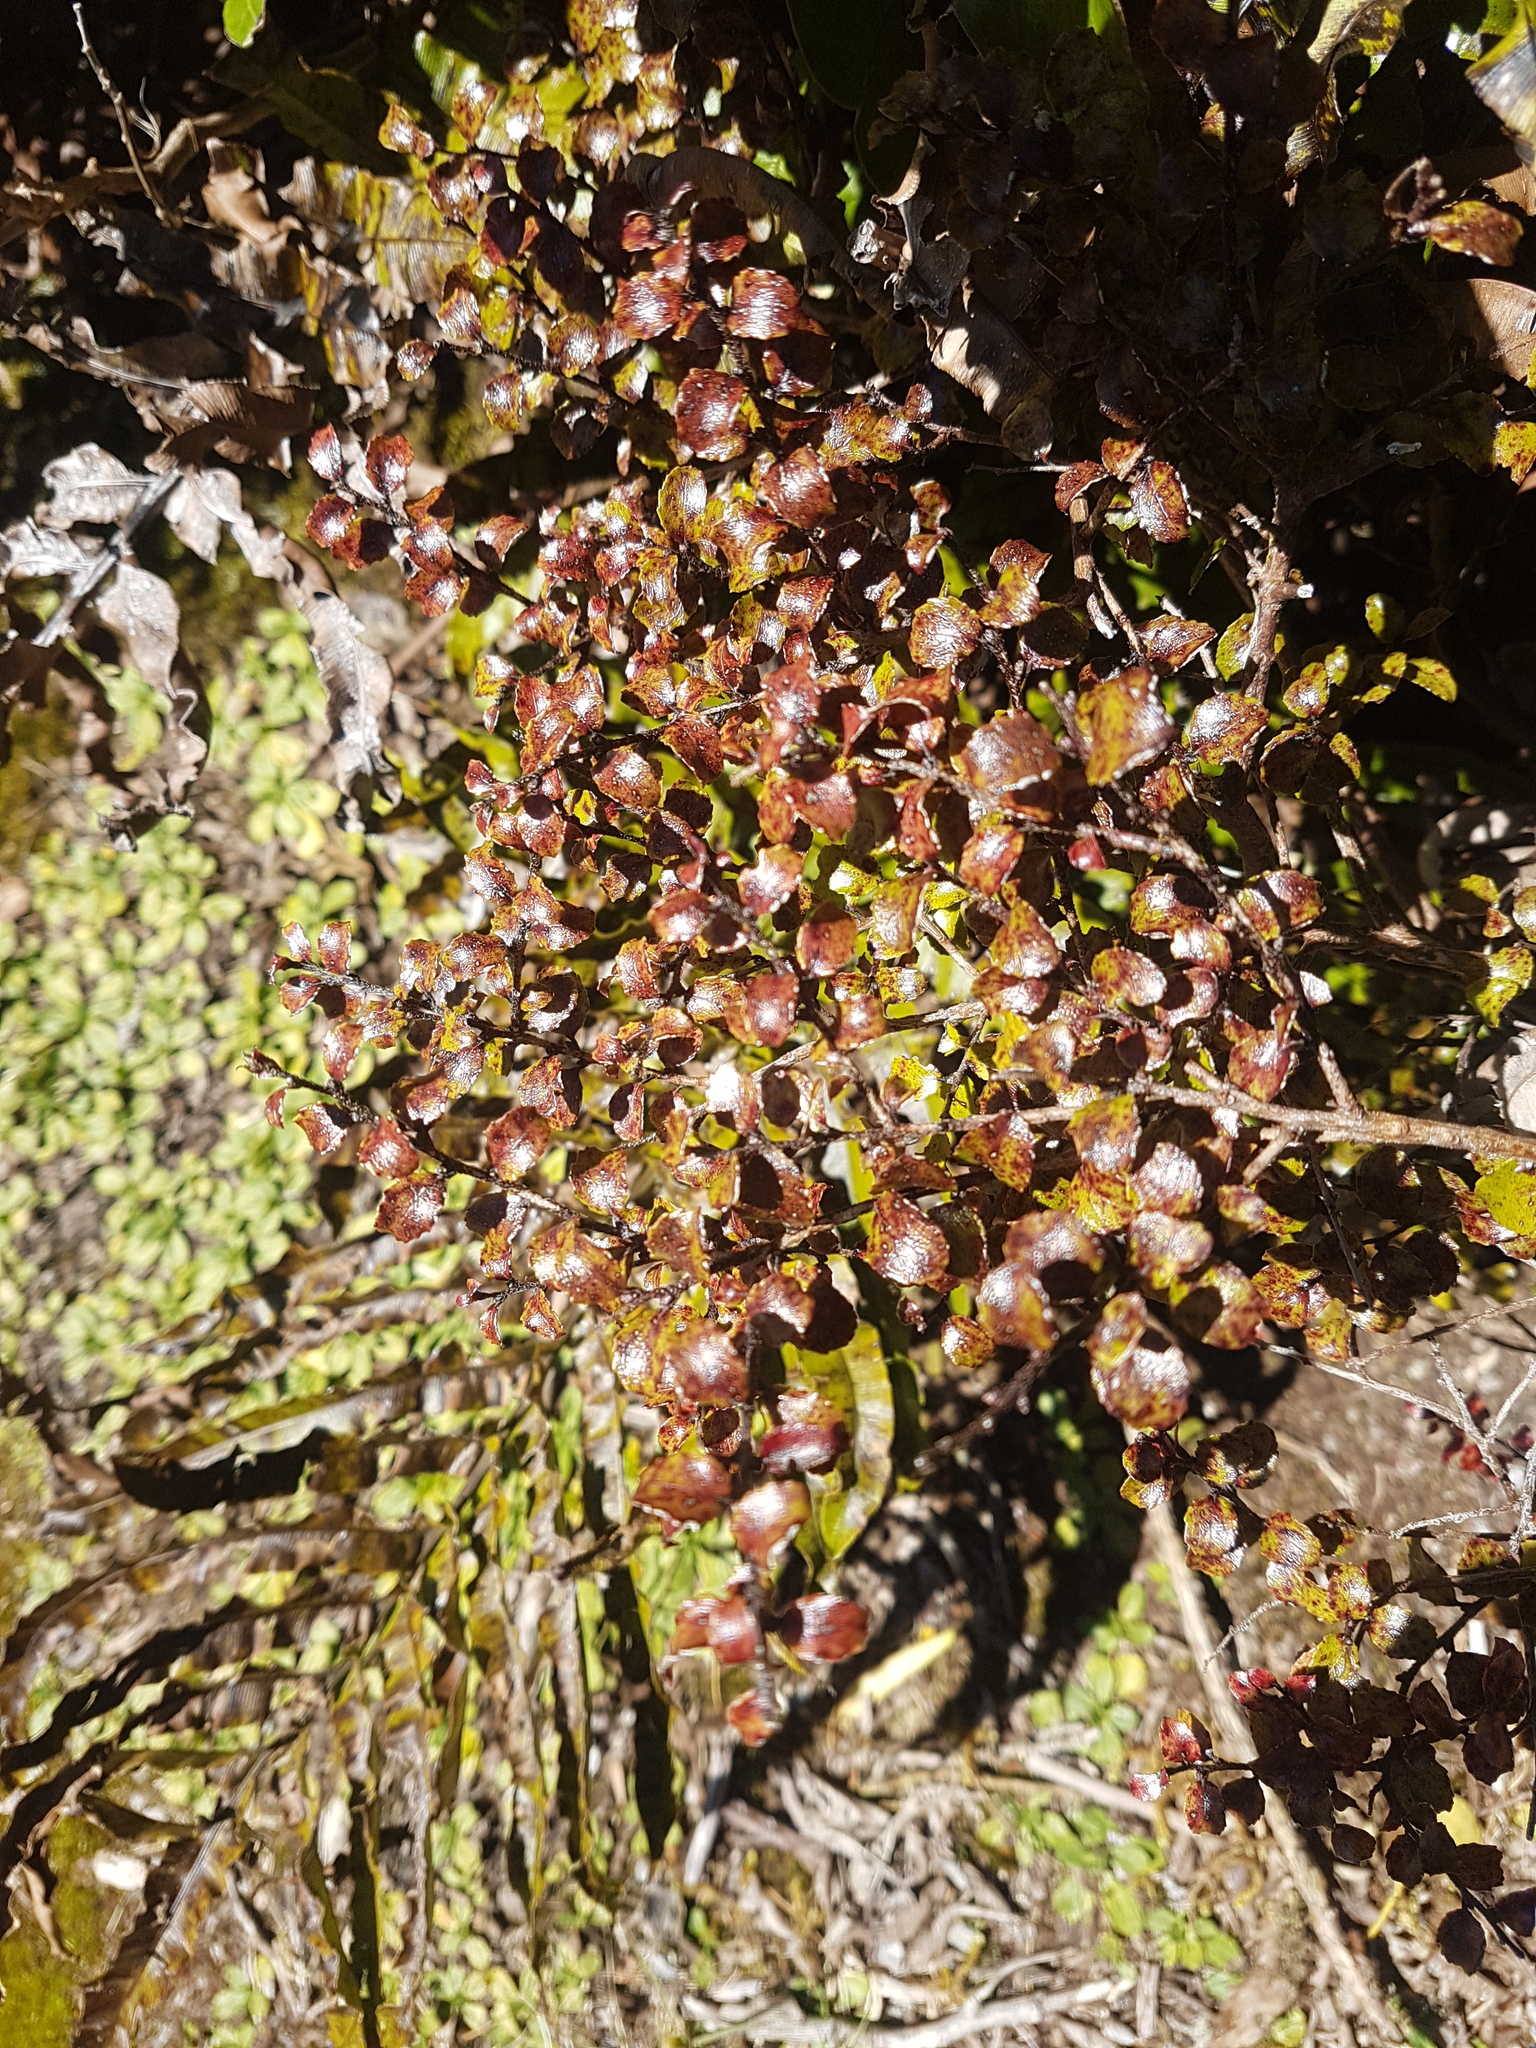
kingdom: Plantae
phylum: Tracheophyta
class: Magnoliopsida
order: Ericales
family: Ericaceae
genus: Gaultheria
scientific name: Gaultheria antipoda
